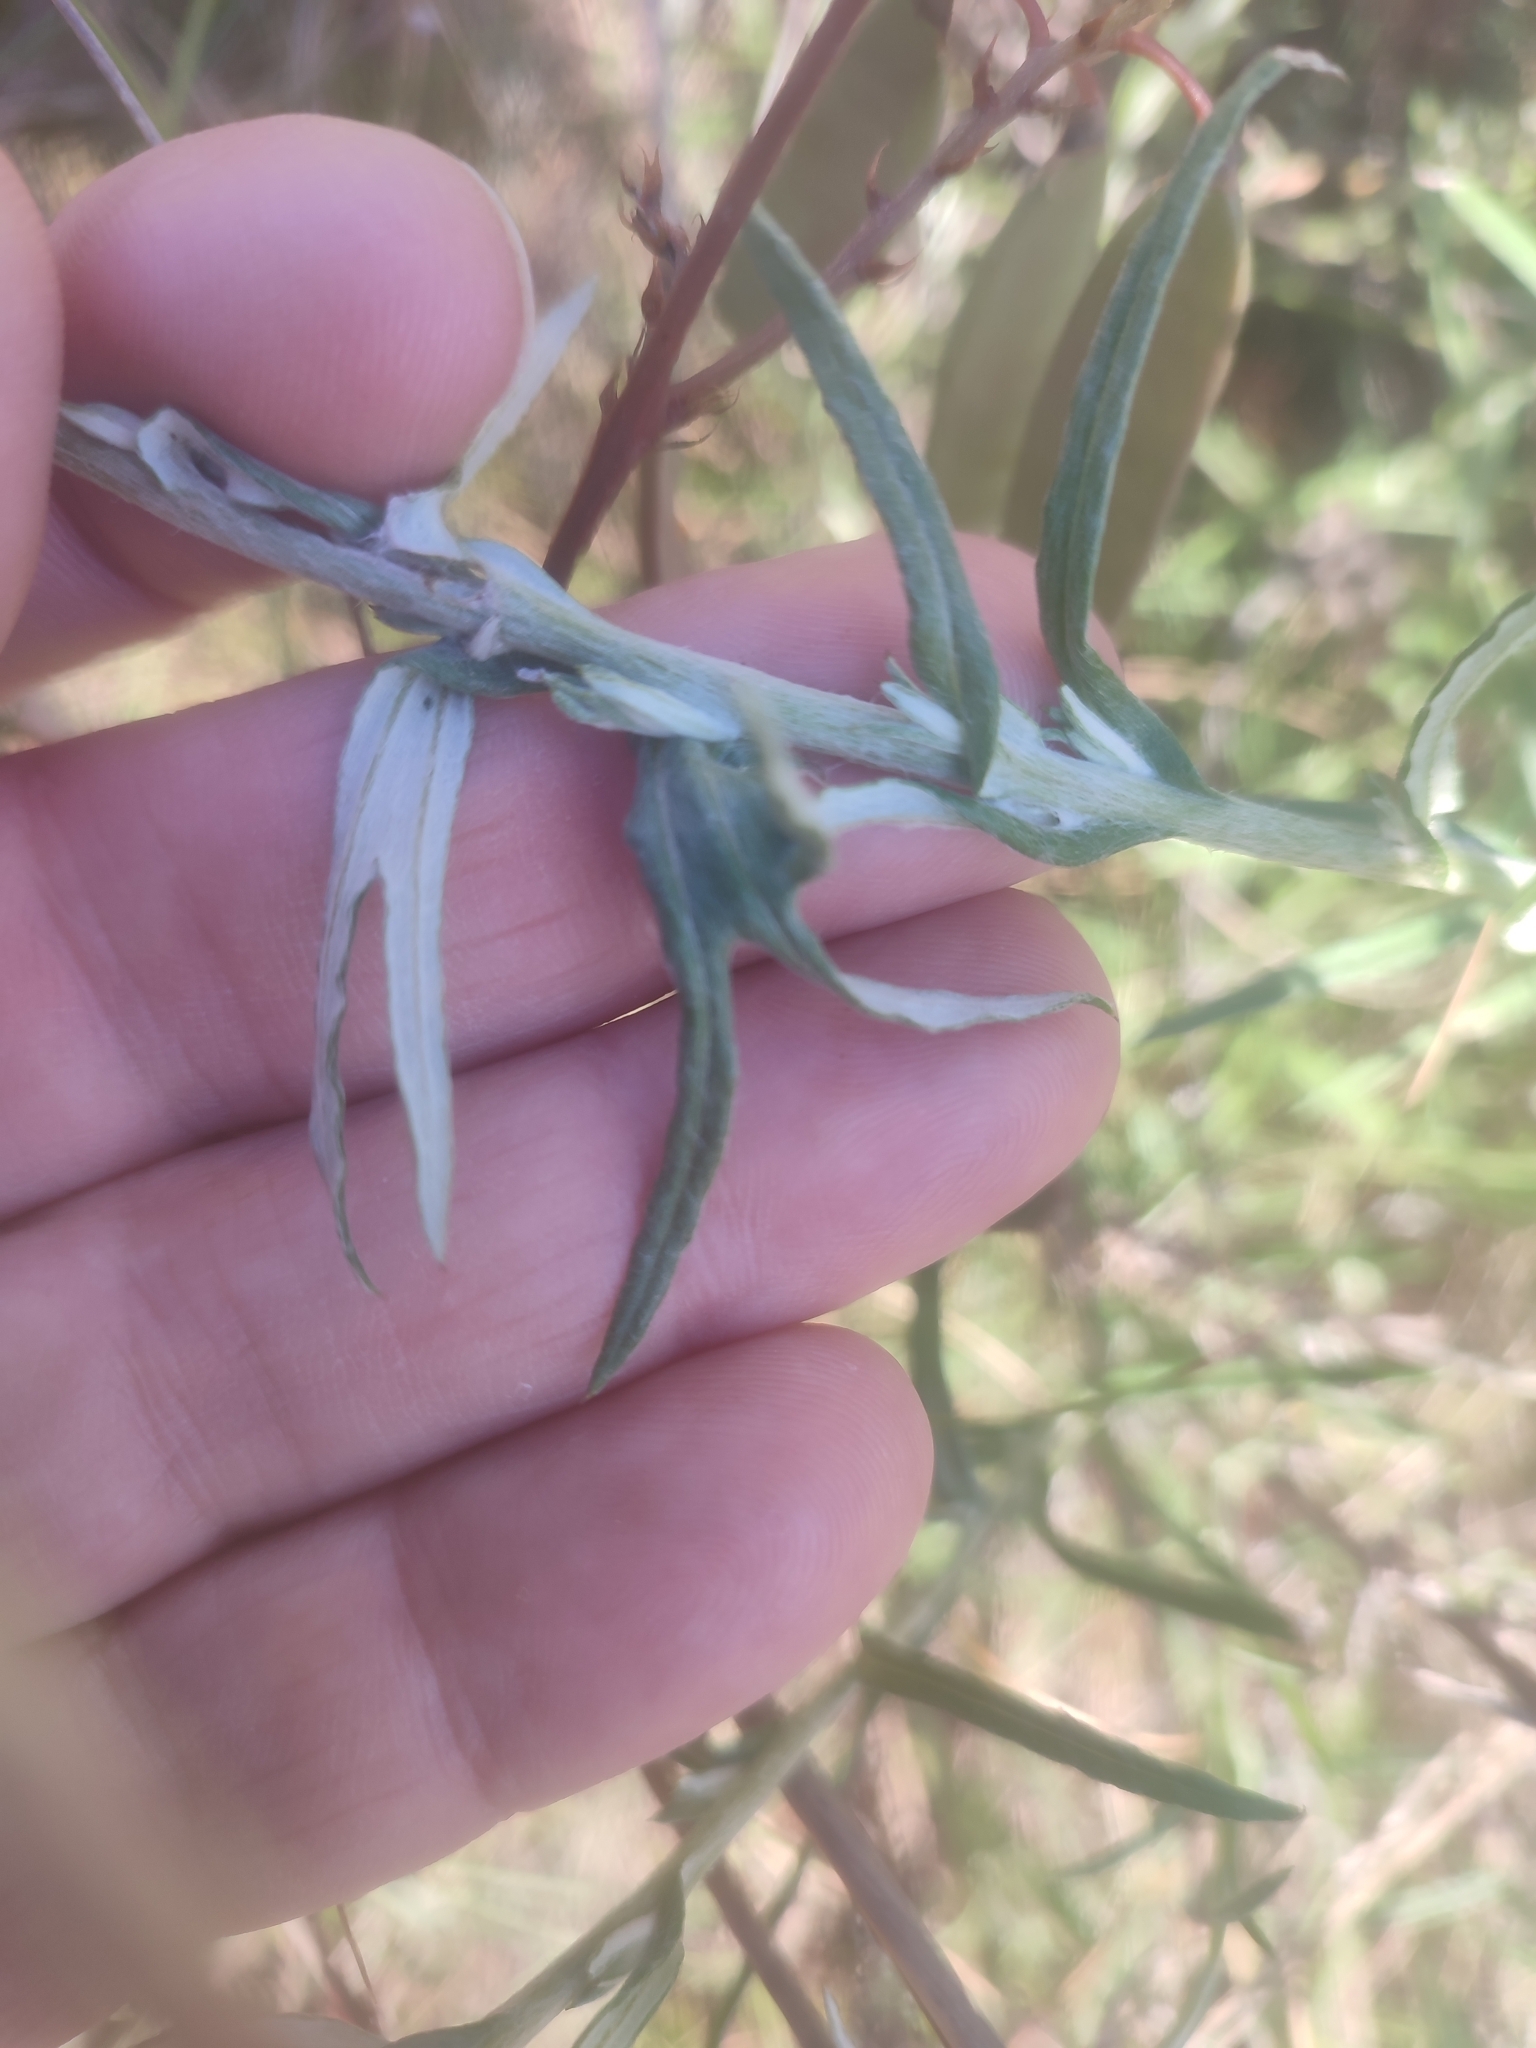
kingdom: Plantae
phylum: Tracheophyta
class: Magnoliopsida
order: Asterales
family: Asteraceae
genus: Chrysocephalum
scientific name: Chrysocephalum apiculatum
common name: Common everlasting
